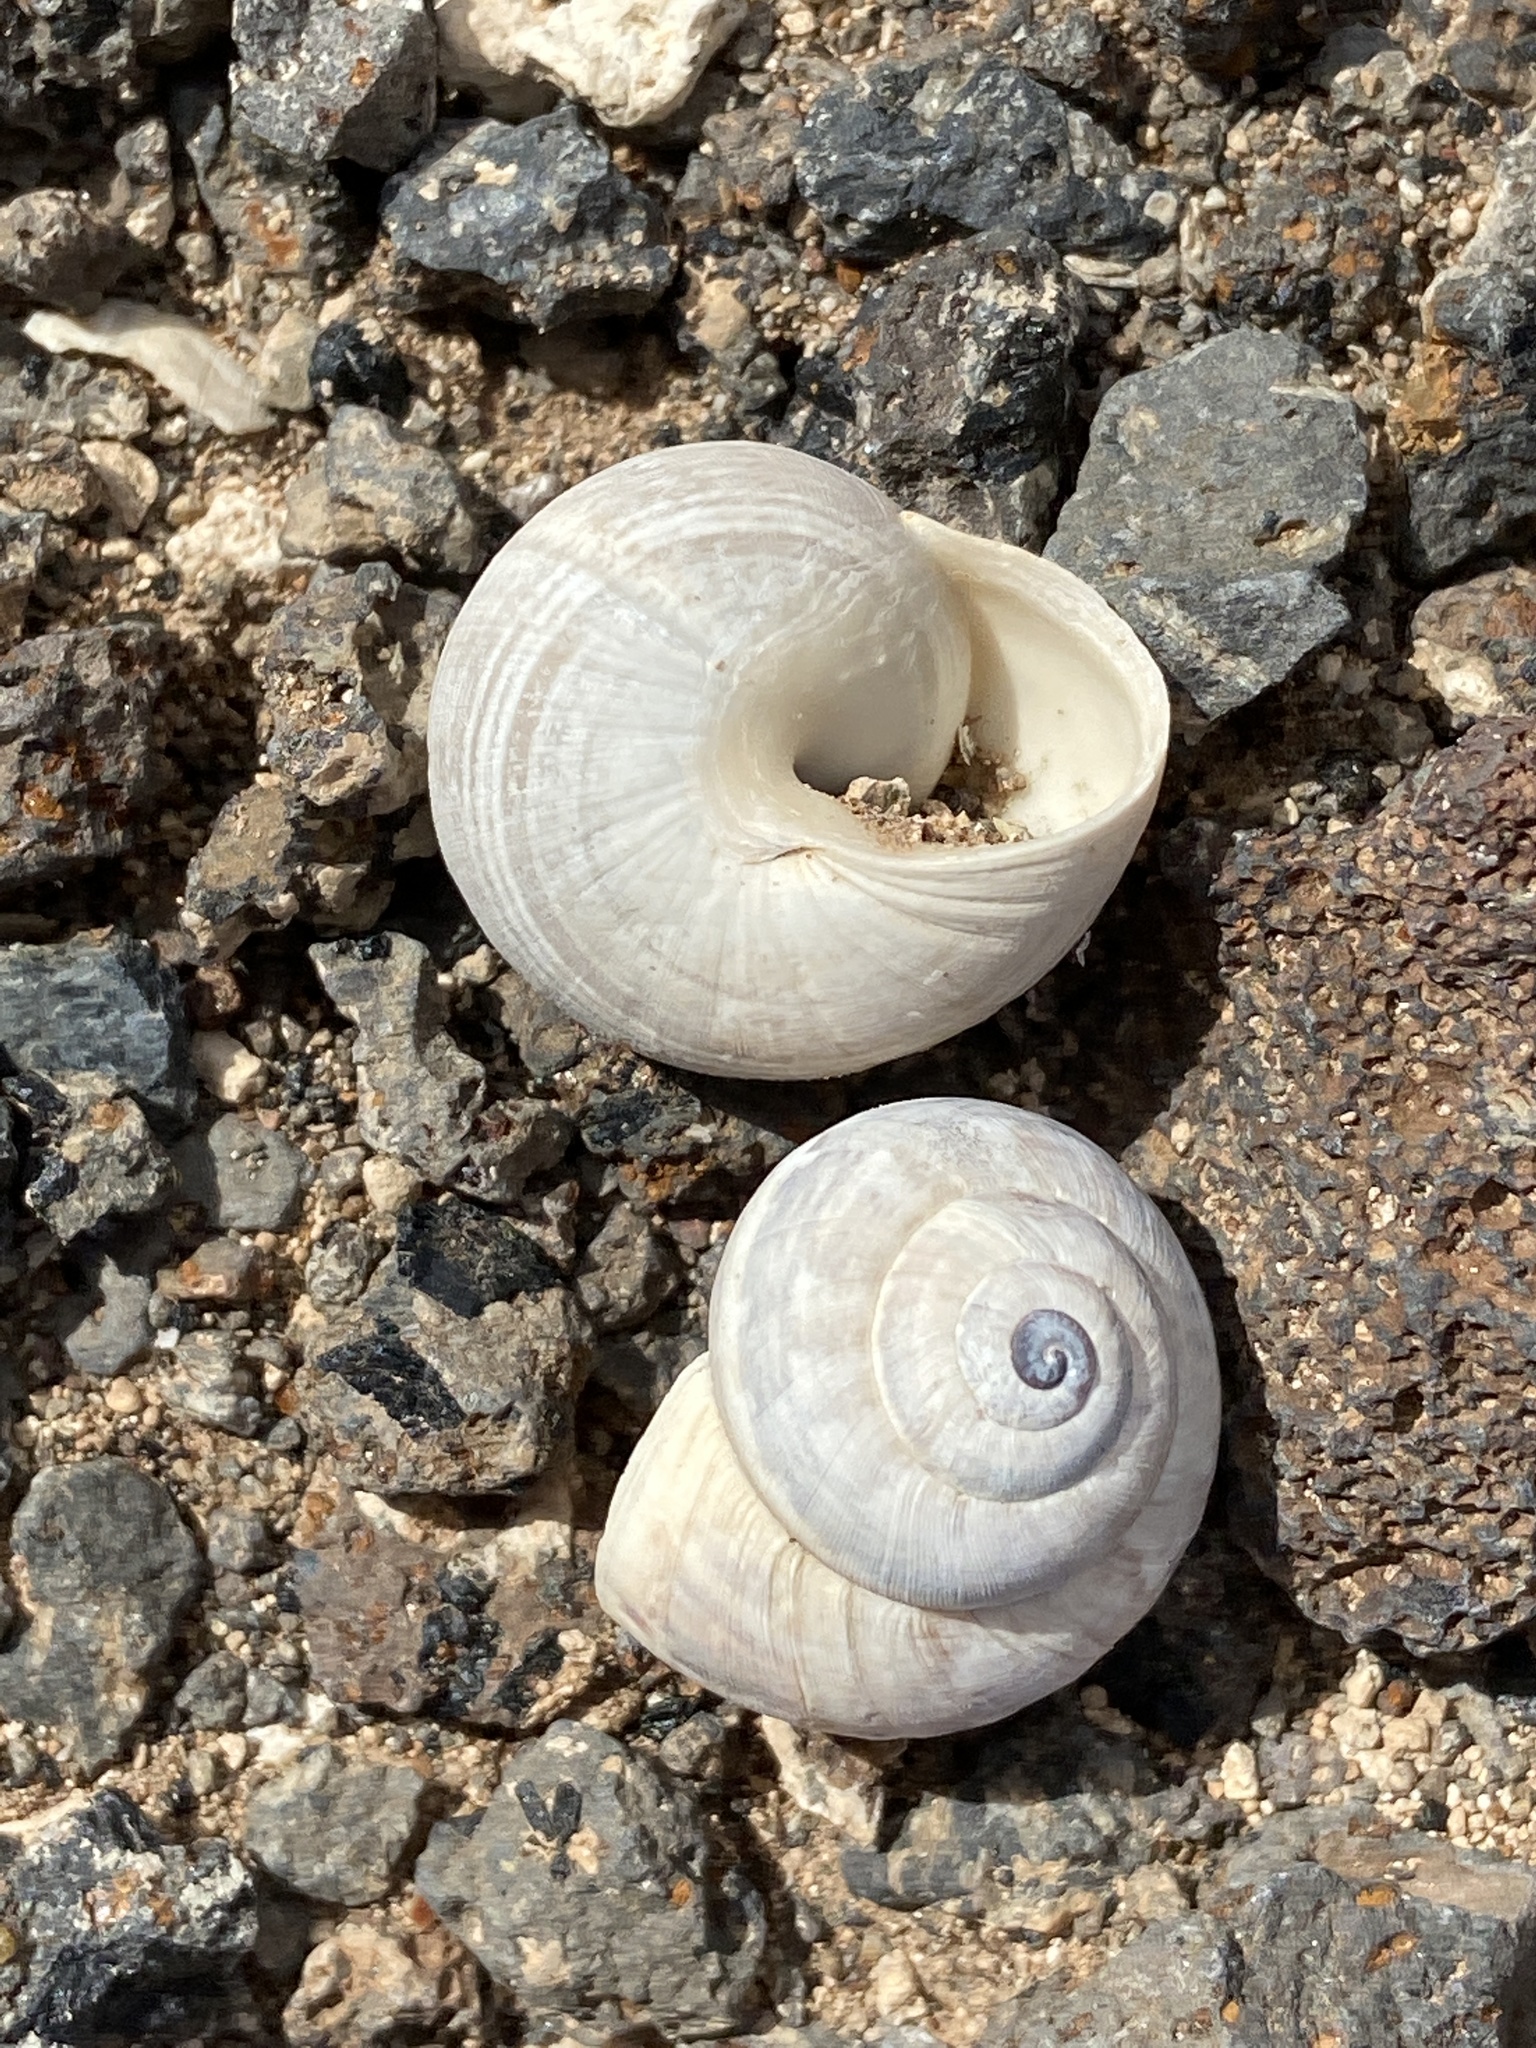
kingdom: Animalia
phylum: Mollusca
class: Gastropoda
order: Stylommatophora
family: Helicidae
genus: Theba
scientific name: Theba geminata
